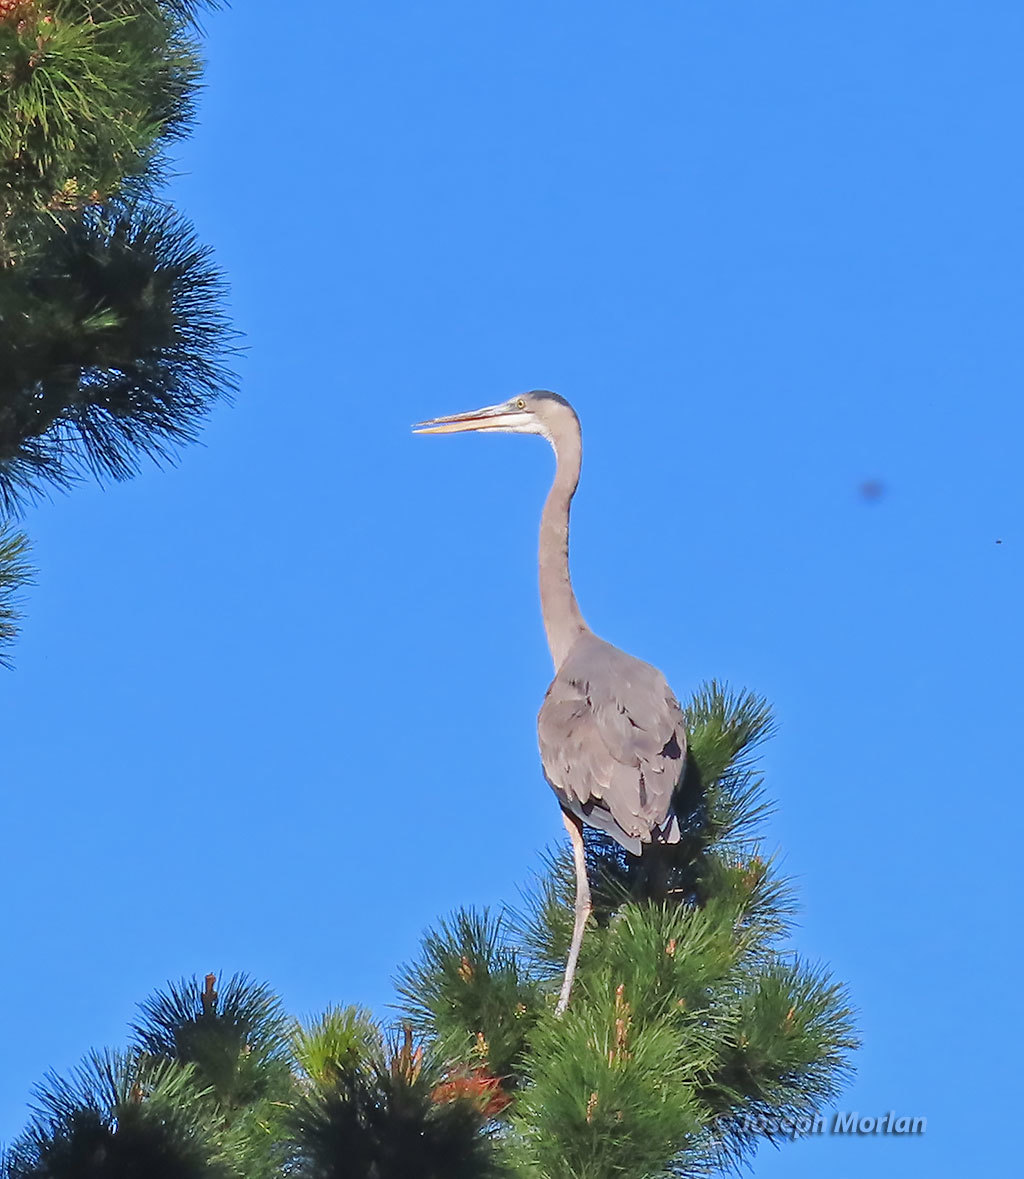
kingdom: Animalia
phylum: Chordata
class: Aves
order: Pelecaniformes
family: Ardeidae
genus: Ardea
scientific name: Ardea herodias
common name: Great blue heron
